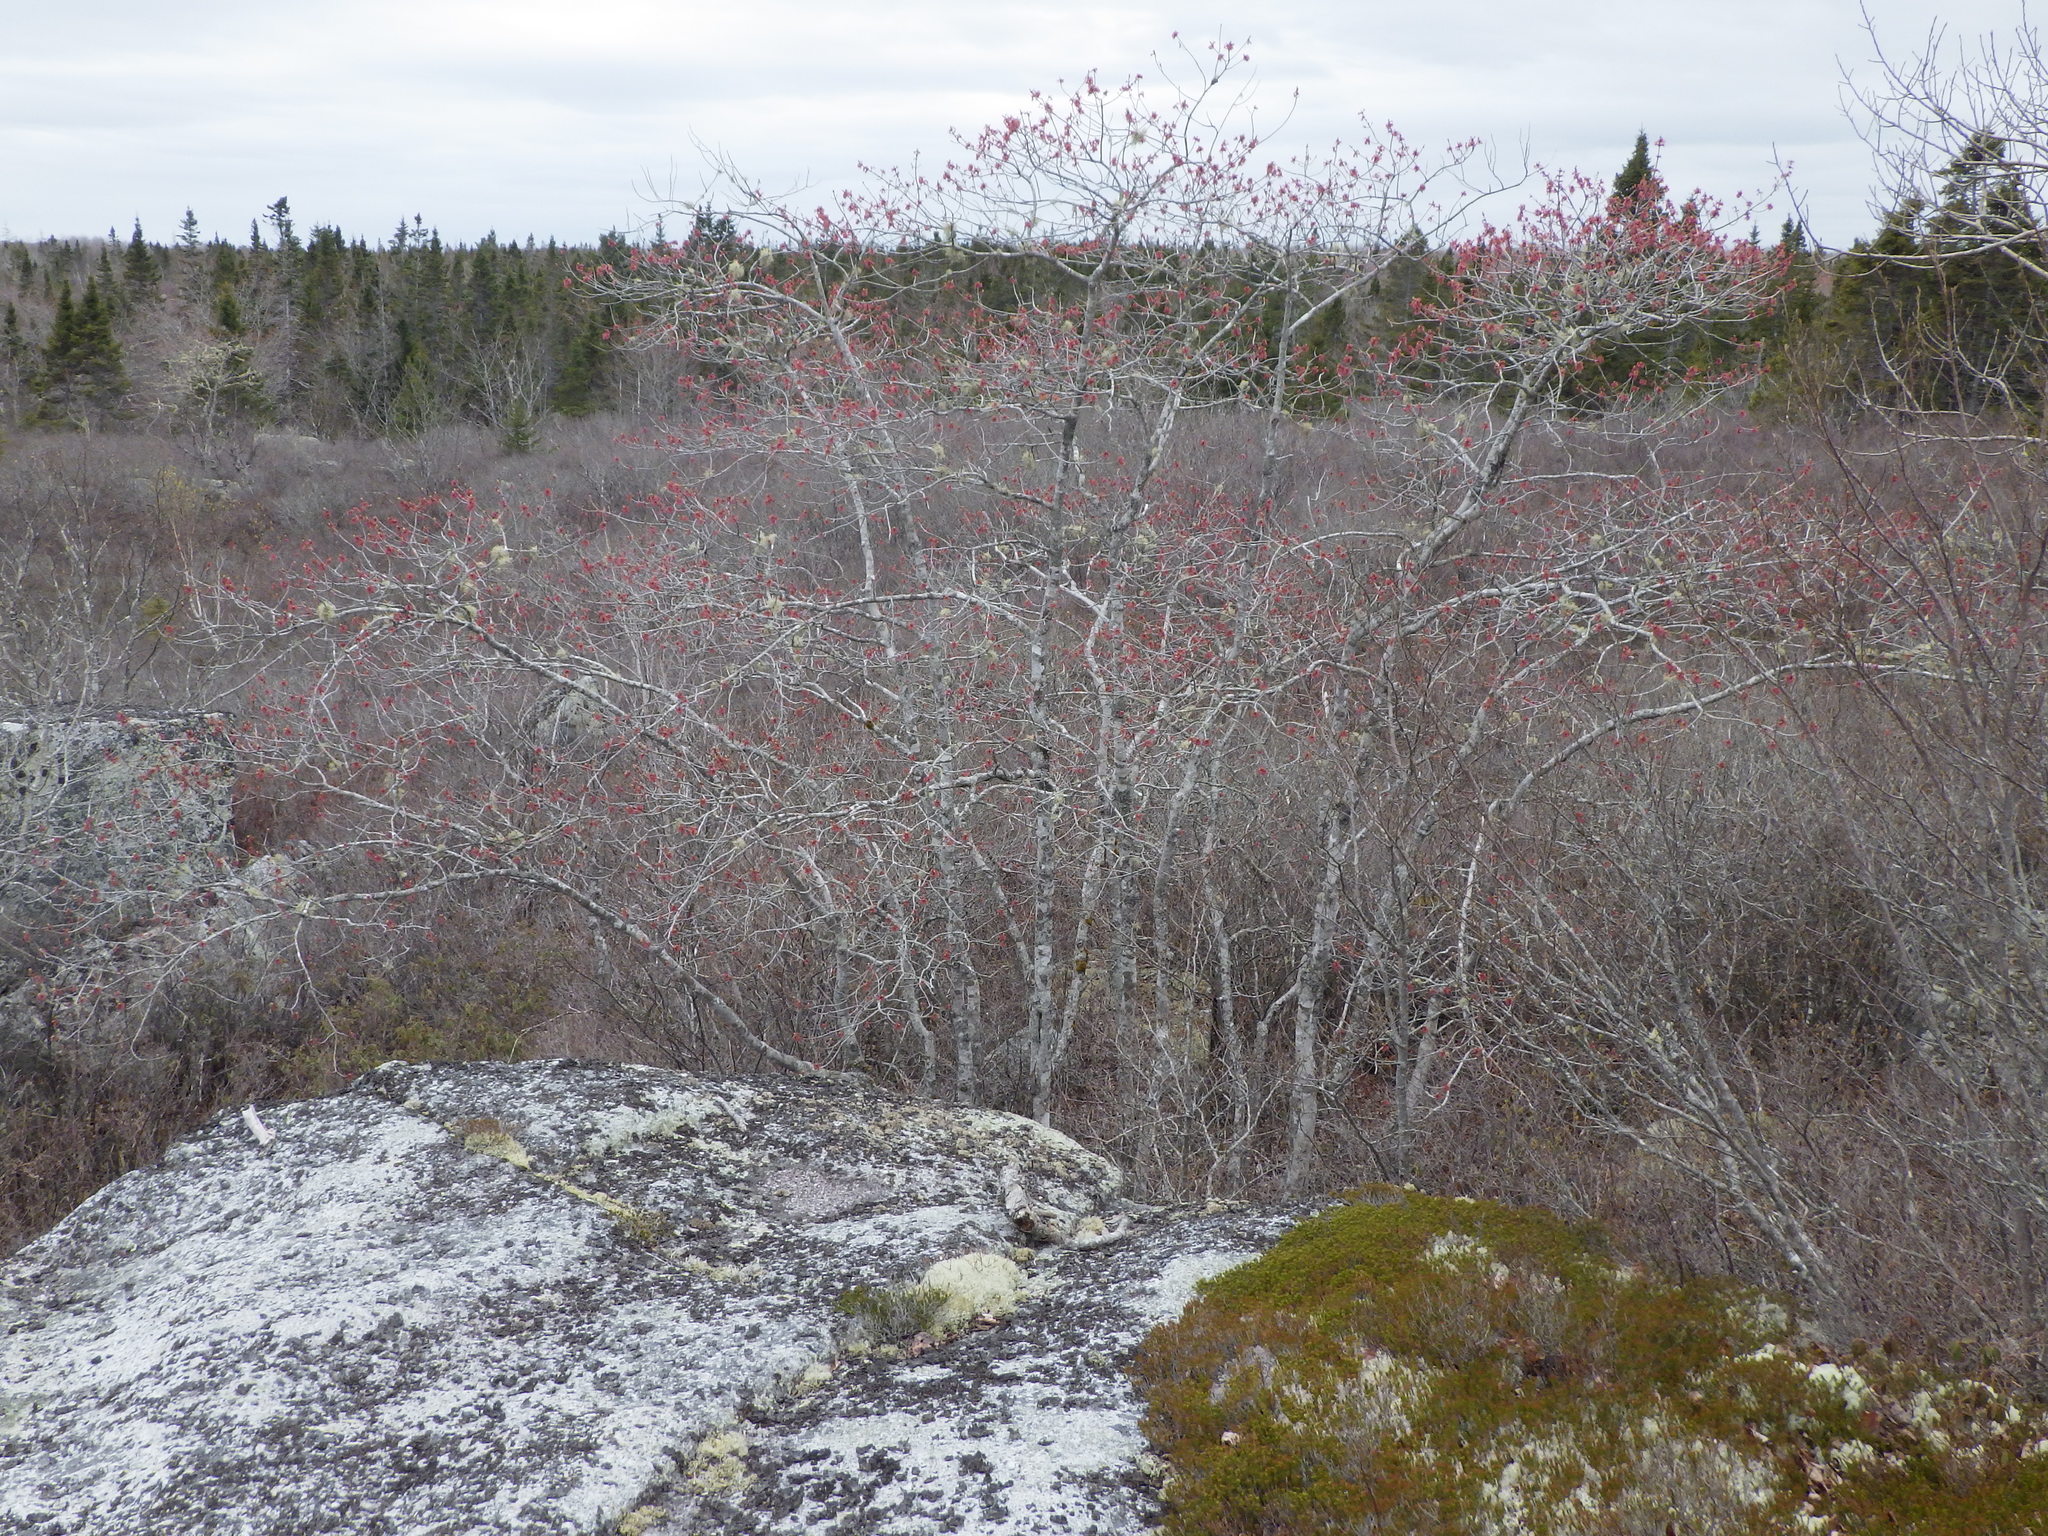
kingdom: Plantae
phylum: Tracheophyta
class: Magnoliopsida
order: Sapindales
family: Sapindaceae
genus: Acer
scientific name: Acer rubrum
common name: Red maple
